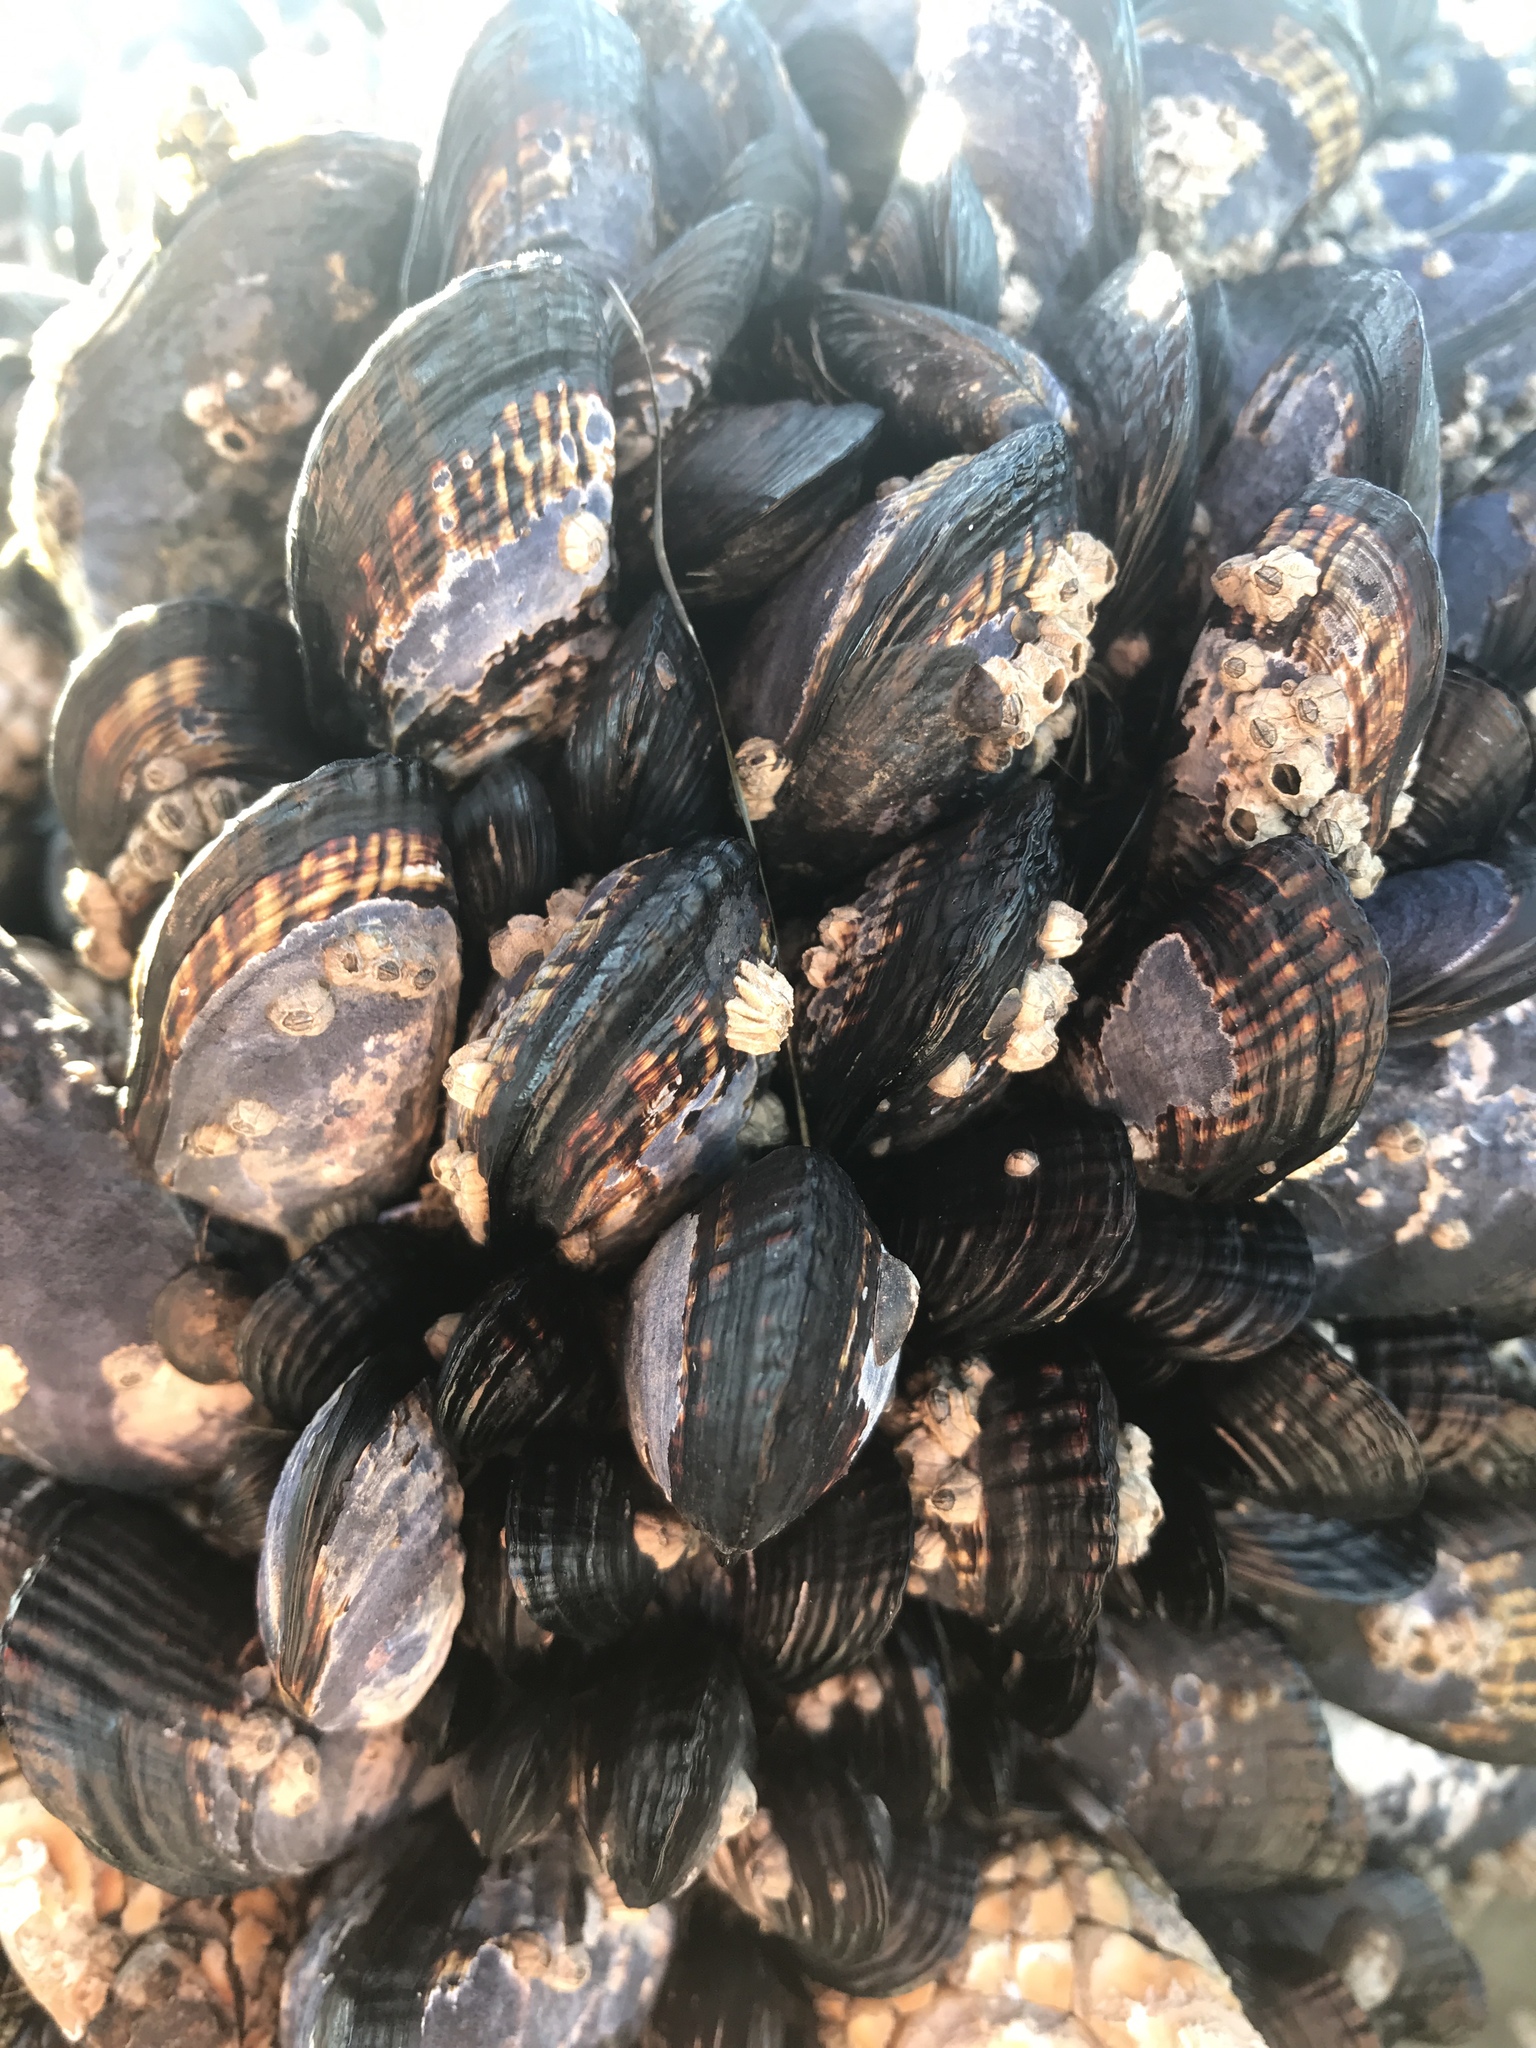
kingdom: Animalia
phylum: Mollusca
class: Bivalvia
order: Mytilida
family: Mytilidae
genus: Mytilus
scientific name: Mytilus californianus
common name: California mussel
